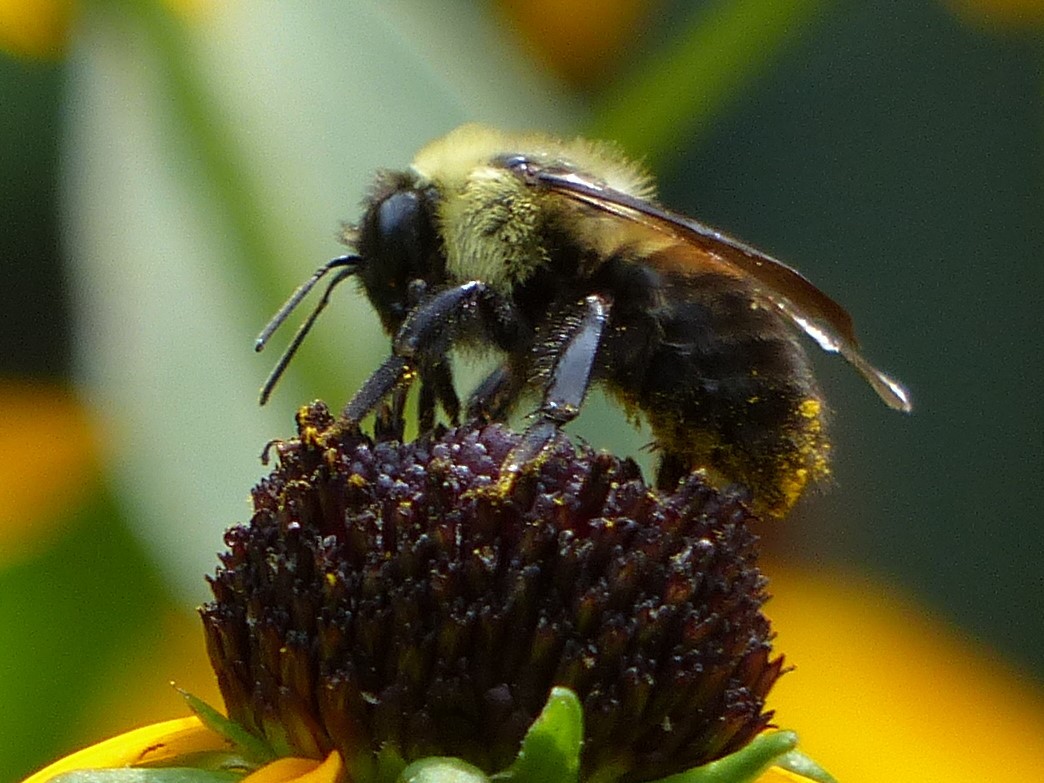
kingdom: Animalia
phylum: Arthropoda
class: Insecta
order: Hymenoptera
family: Apidae
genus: Bombus
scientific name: Bombus griseocollis
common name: Brown-belted bumble bee
